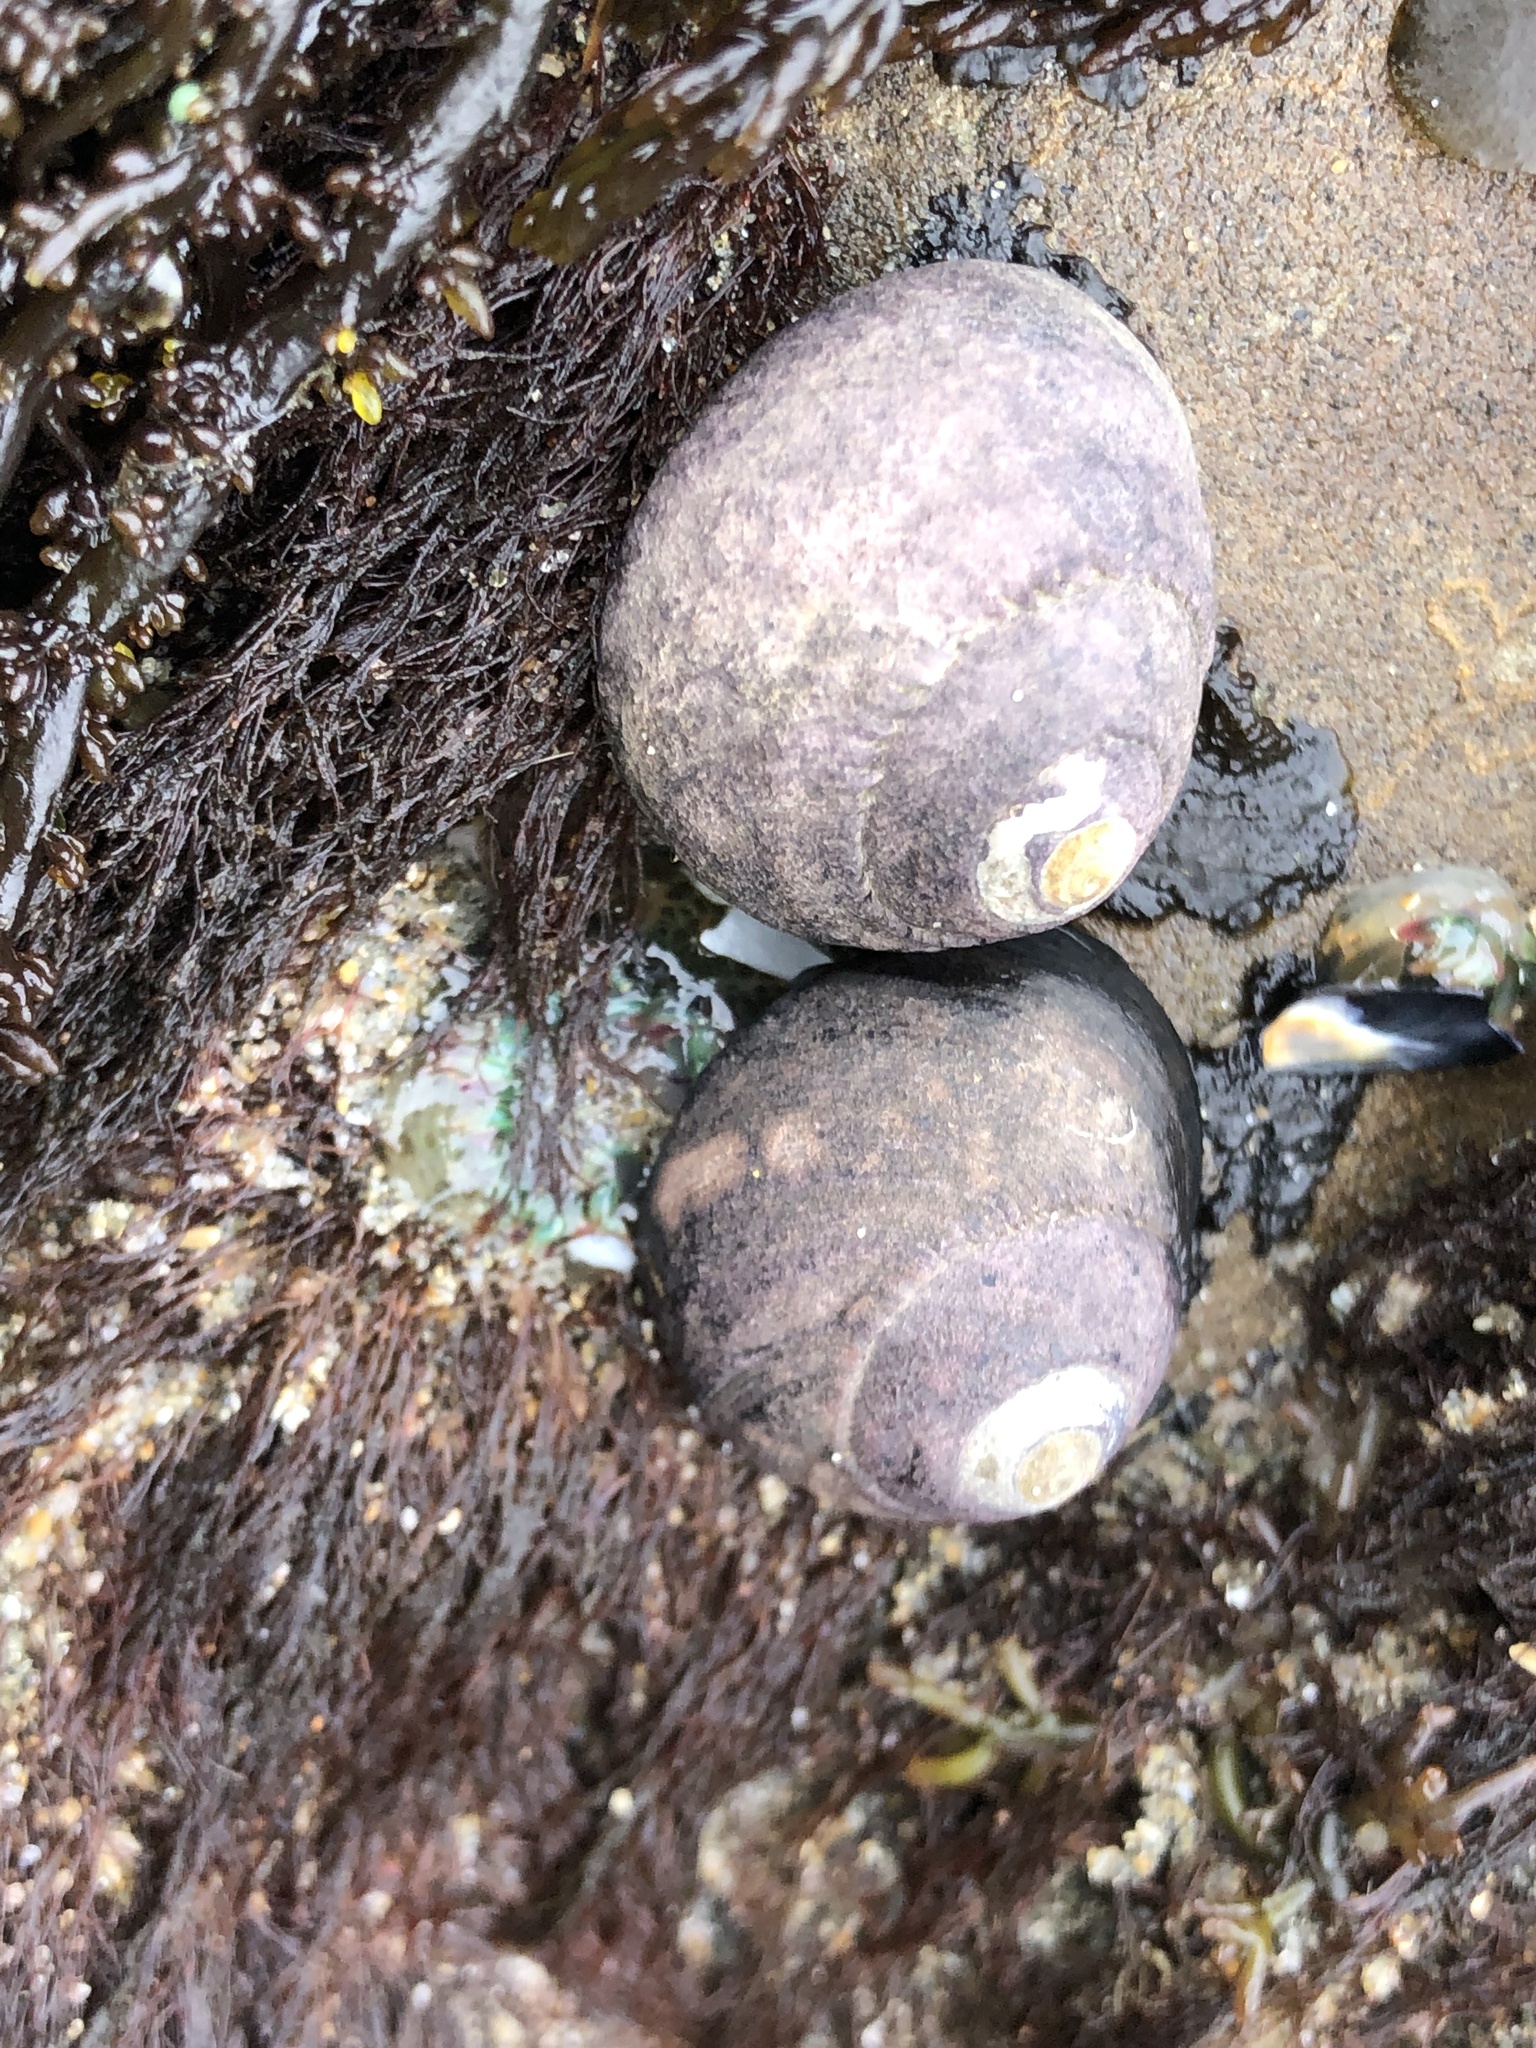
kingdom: Animalia
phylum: Mollusca
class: Gastropoda
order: Trochida
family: Tegulidae
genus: Tegula
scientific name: Tegula funebralis
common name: Black tegula
